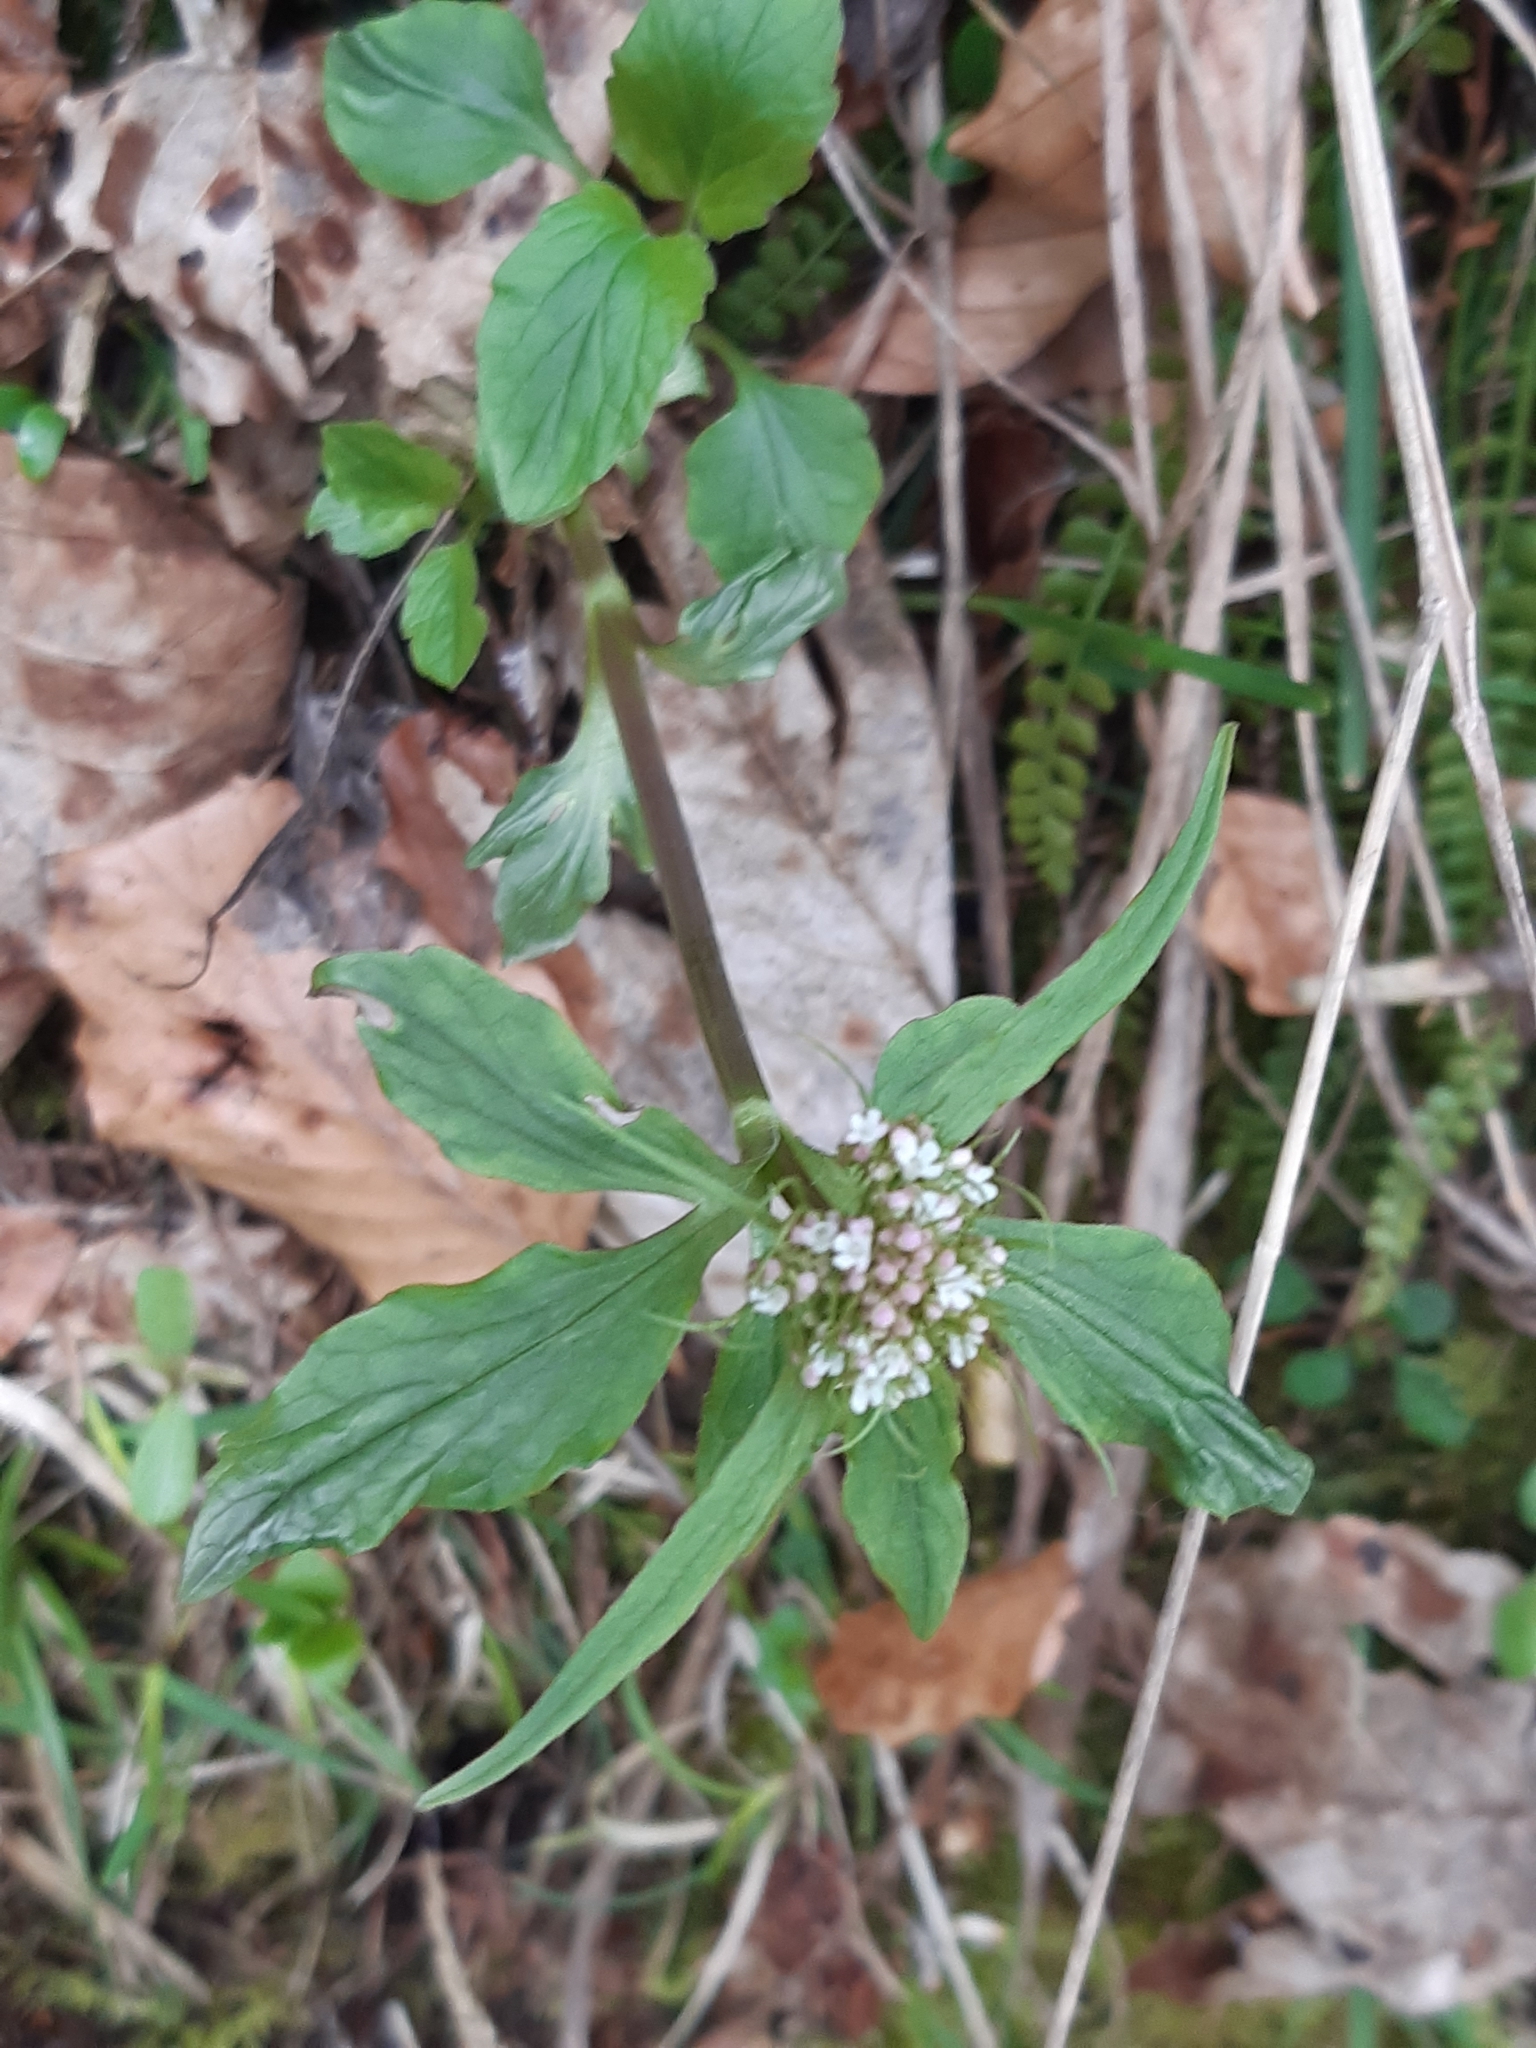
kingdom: Plantae
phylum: Tracheophyta
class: Magnoliopsida
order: Dipsacales
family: Caprifoliaceae
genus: Valeriana
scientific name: Valeriana tripteris
